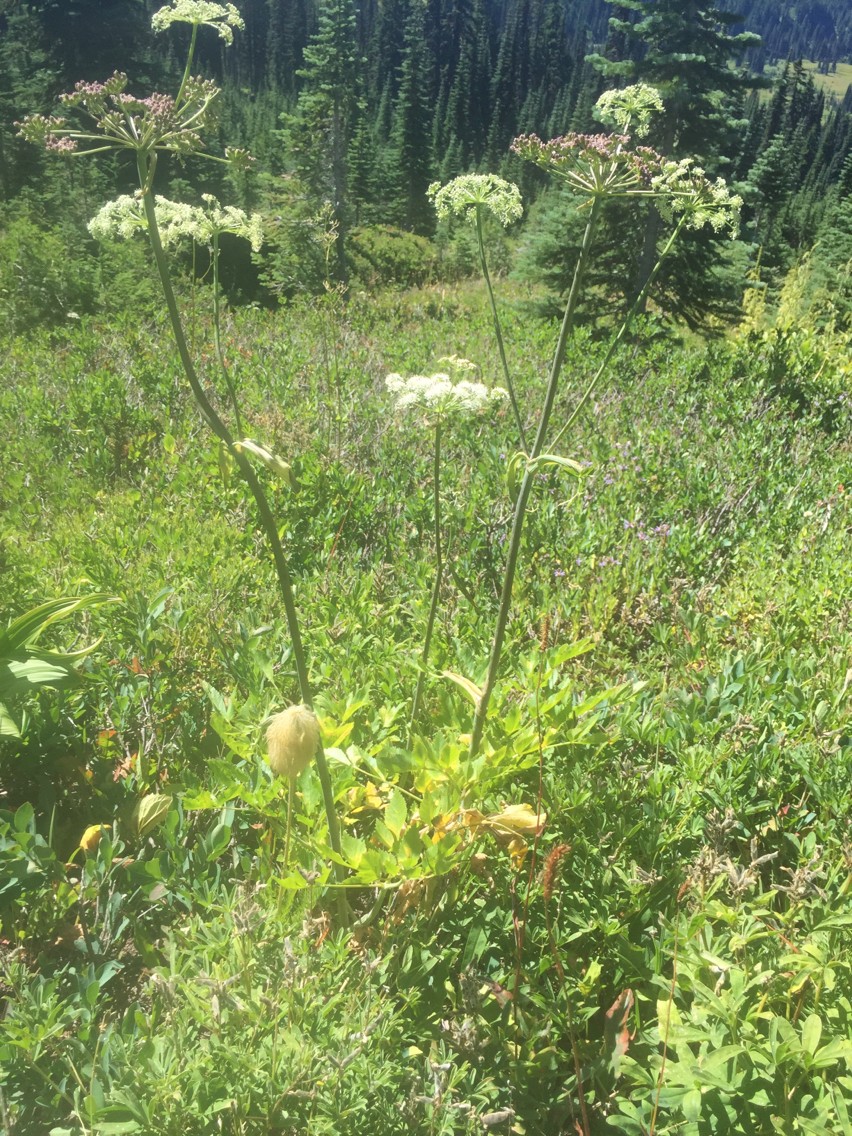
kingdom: Plantae
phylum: Tracheophyta
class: Magnoliopsida
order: Apiales
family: Apiaceae
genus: Angelica
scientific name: Angelica arguta
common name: Lyall's angelica
